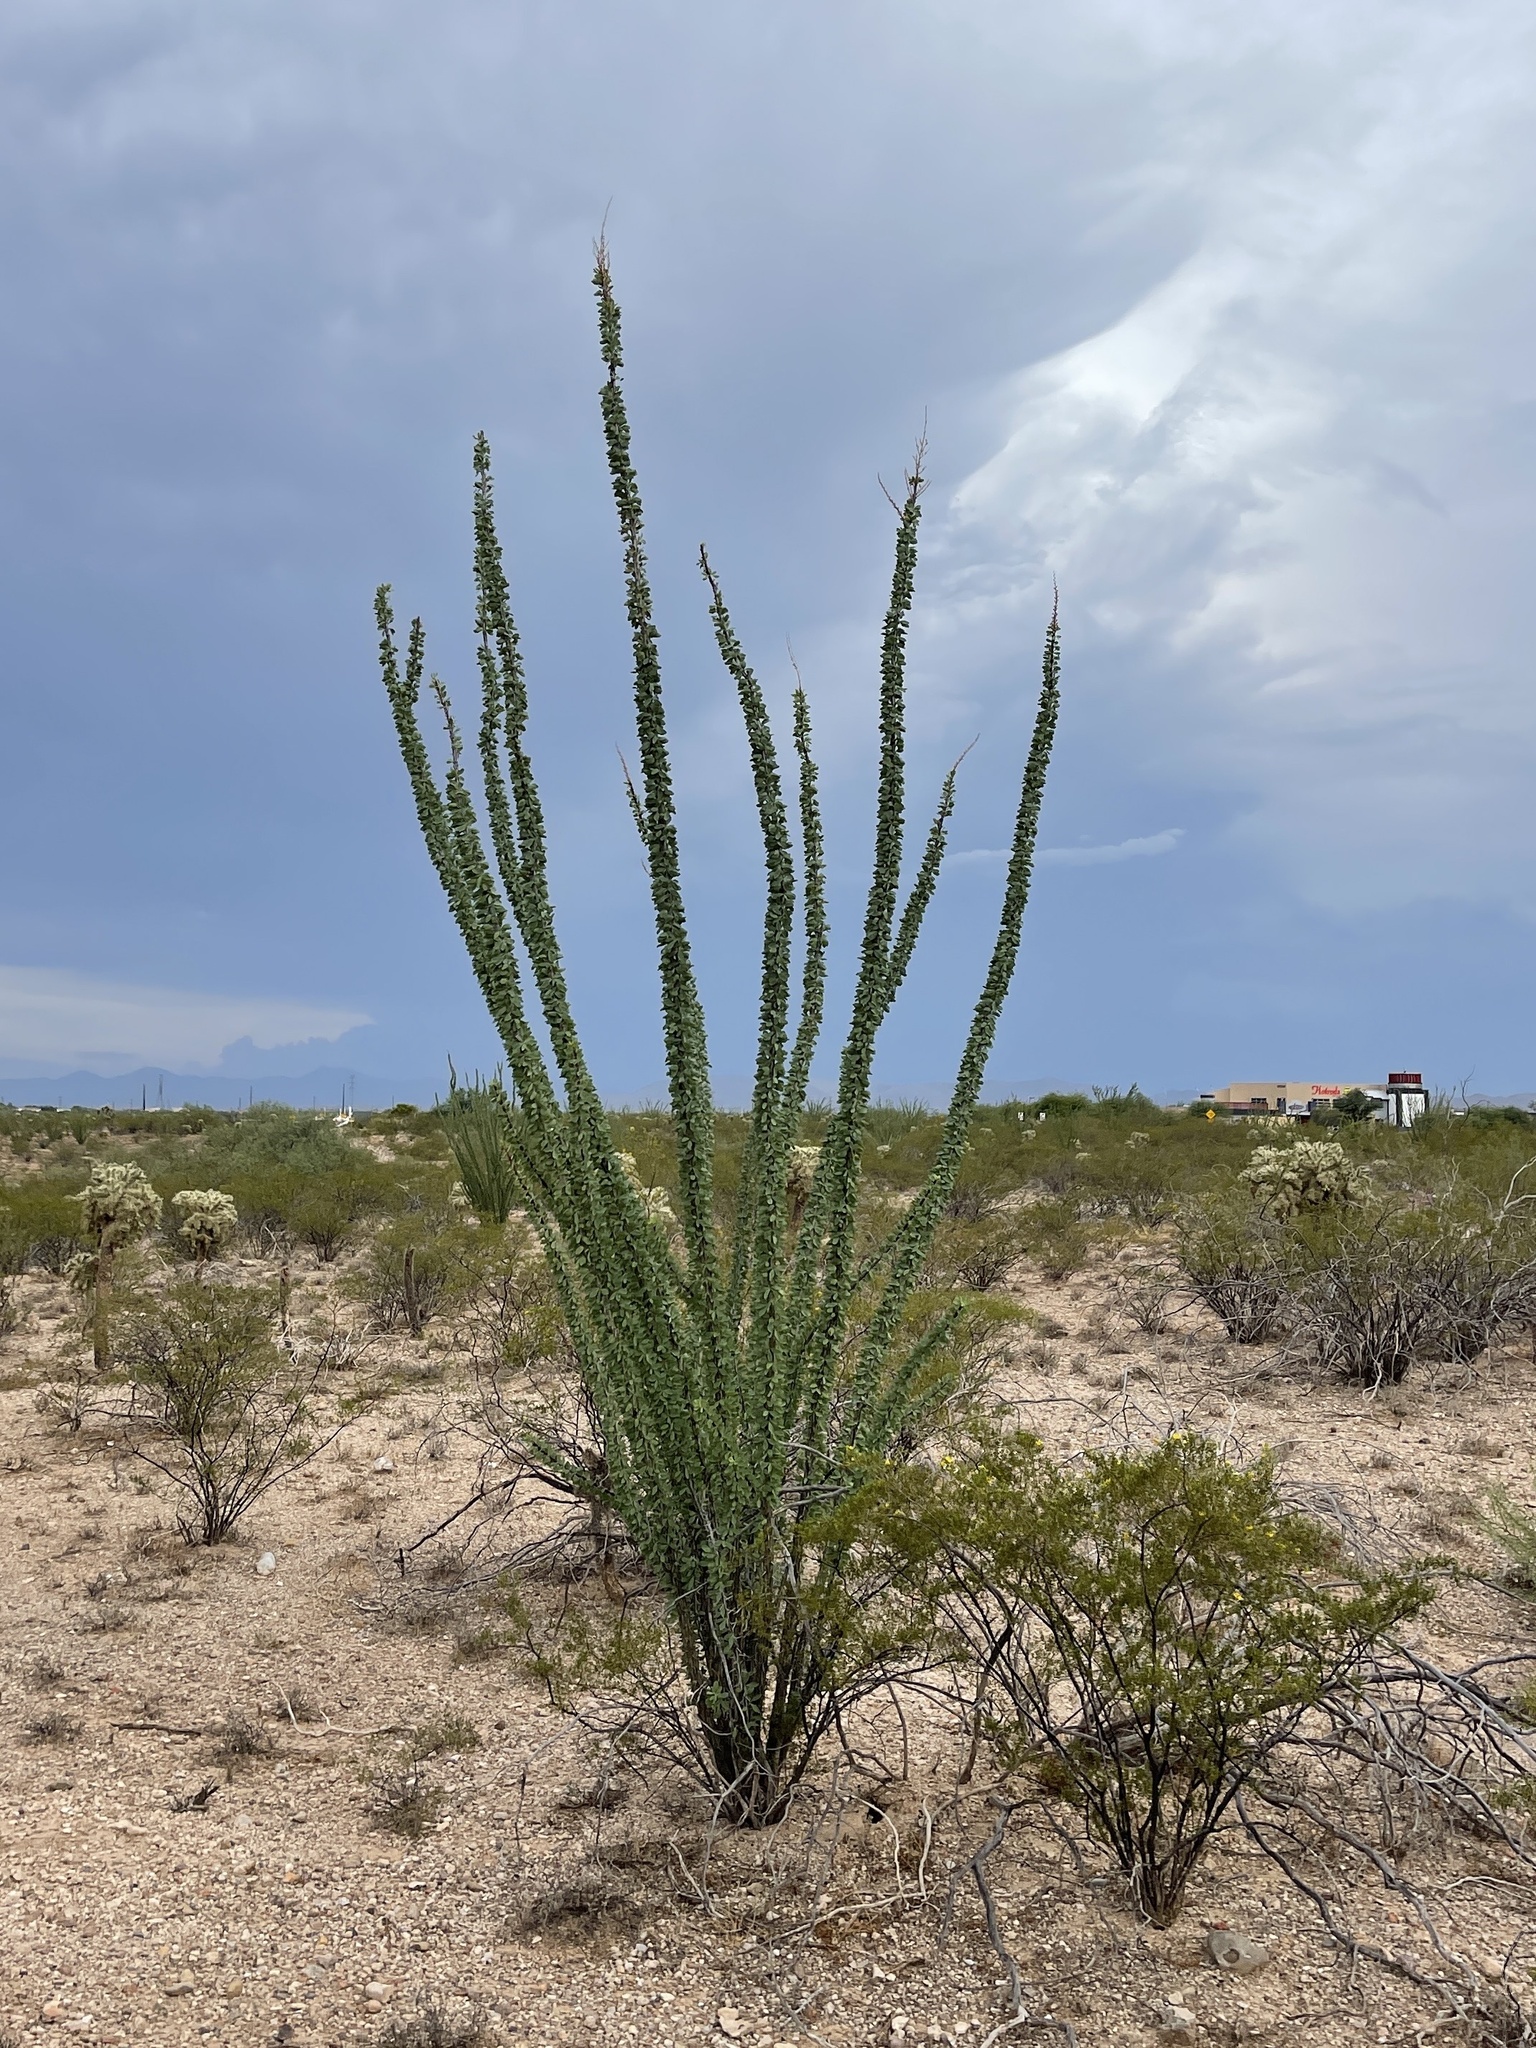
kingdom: Plantae
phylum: Tracheophyta
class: Magnoliopsida
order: Ericales
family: Fouquieriaceae
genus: Fouquieria
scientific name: Fouquieria splendens
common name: Vine-cactus
